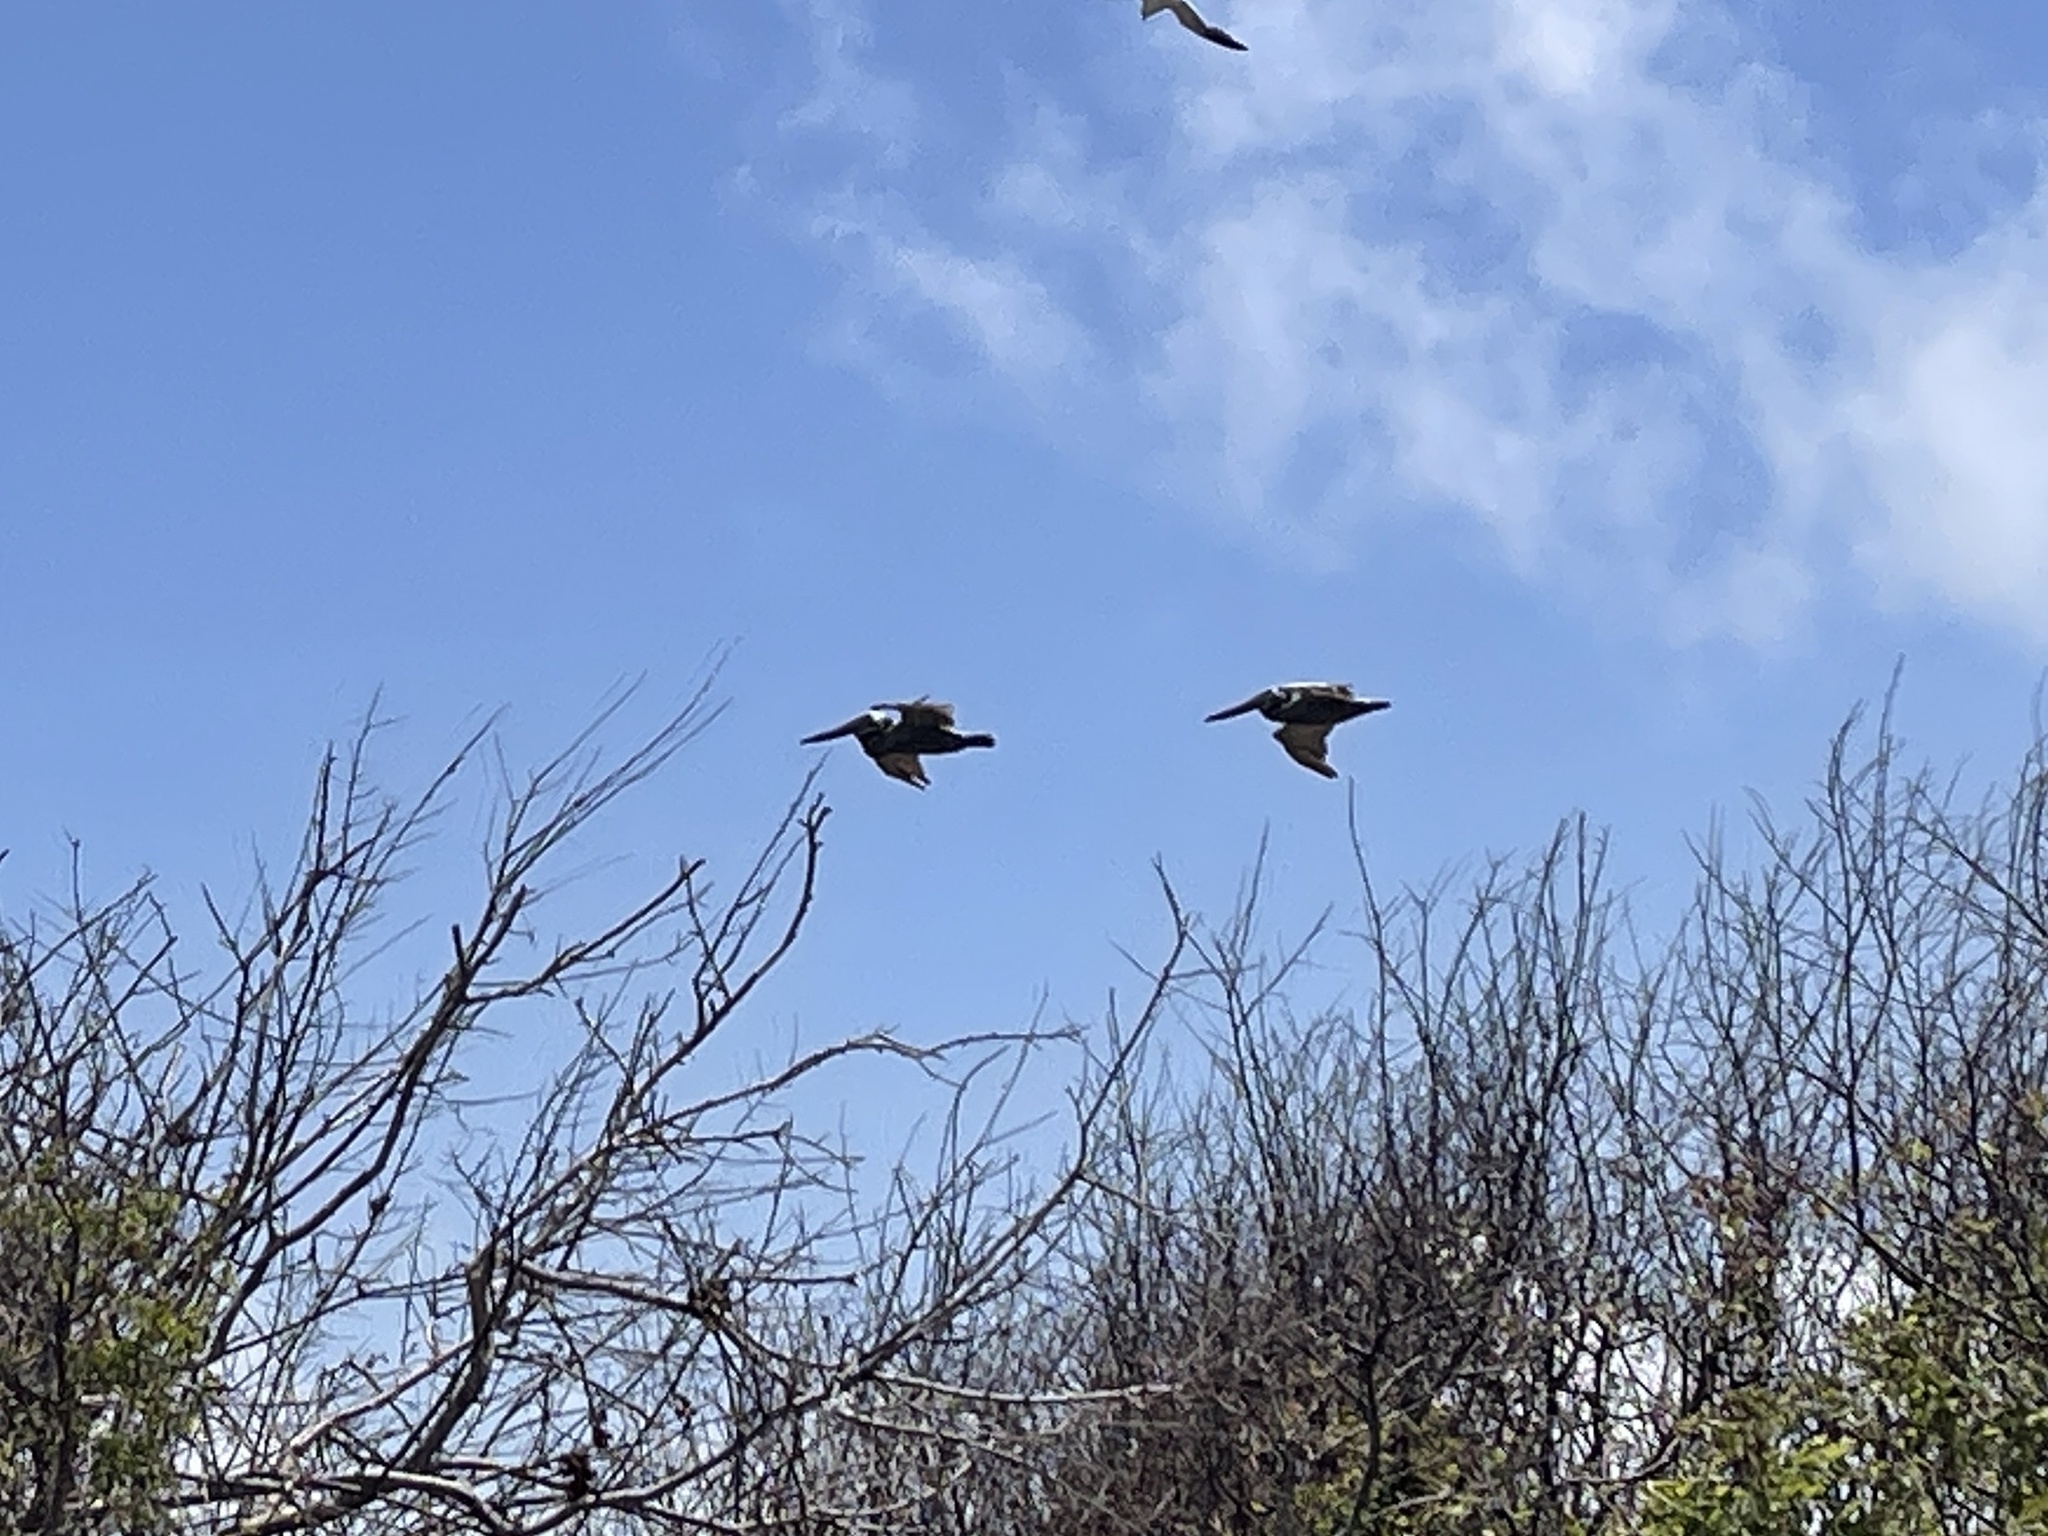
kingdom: Animalia
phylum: Chordata
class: Aves
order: Pelecaniformes
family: Pelecanidae
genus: Pelecanus
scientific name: Pelecanus occidentalis
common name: Brown pelican
